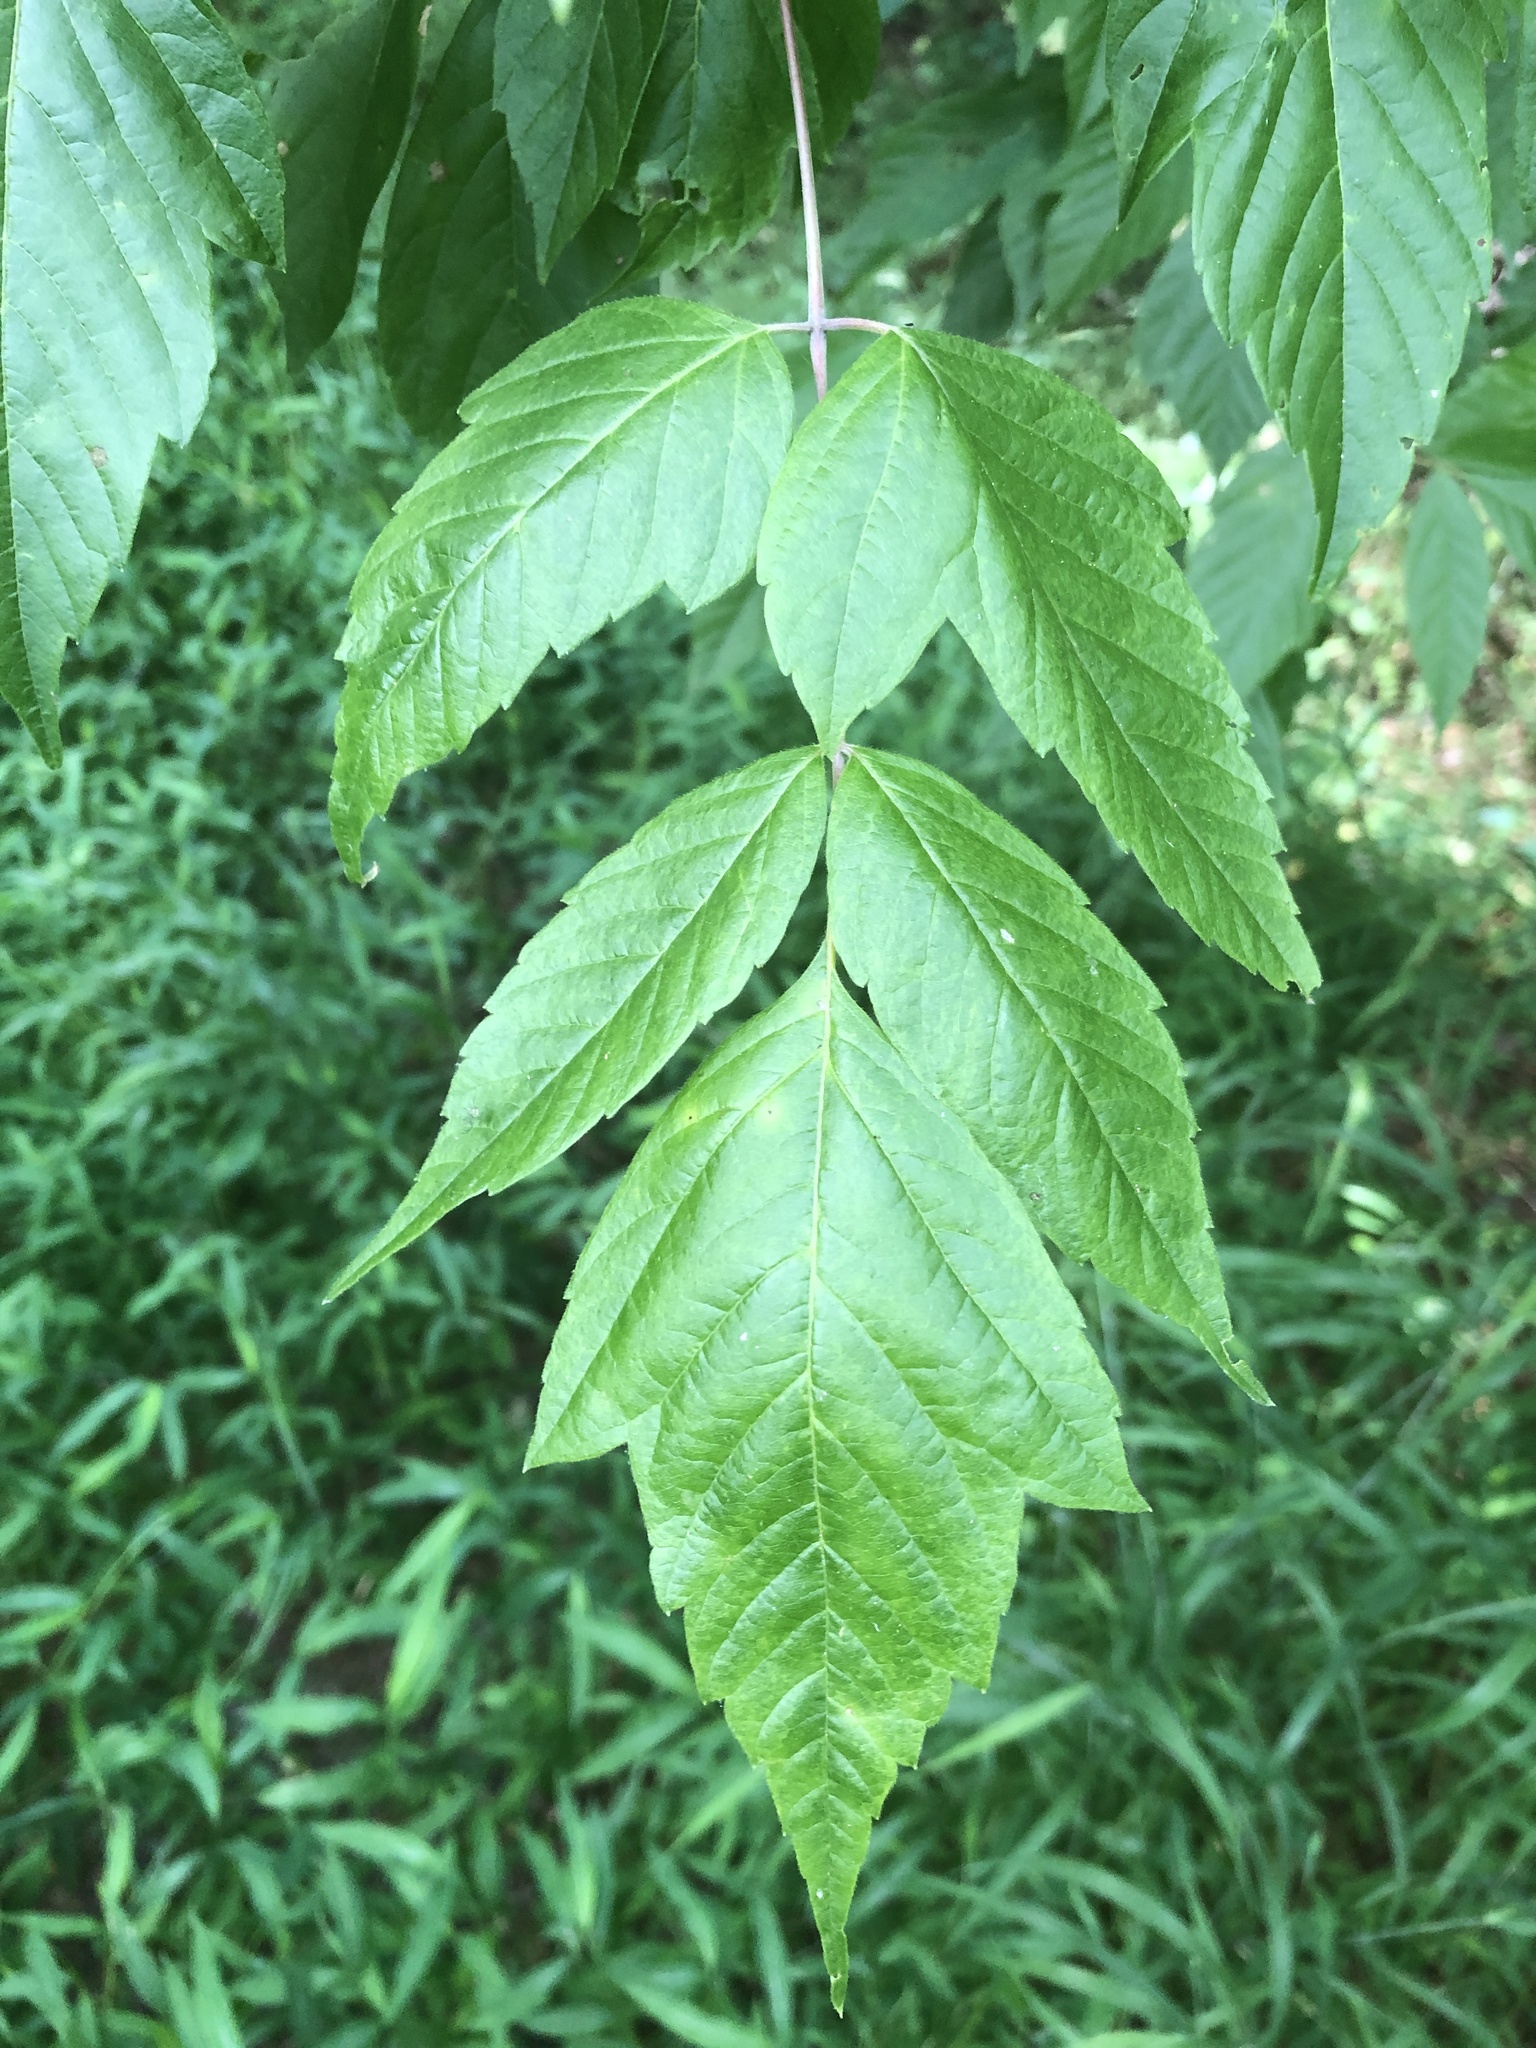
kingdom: Plantae
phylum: Tracheophyta
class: Magnoliopsida
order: Sapindales
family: Sapindaceae
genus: Acer
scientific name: Acer negundo
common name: Ashleaf maple
